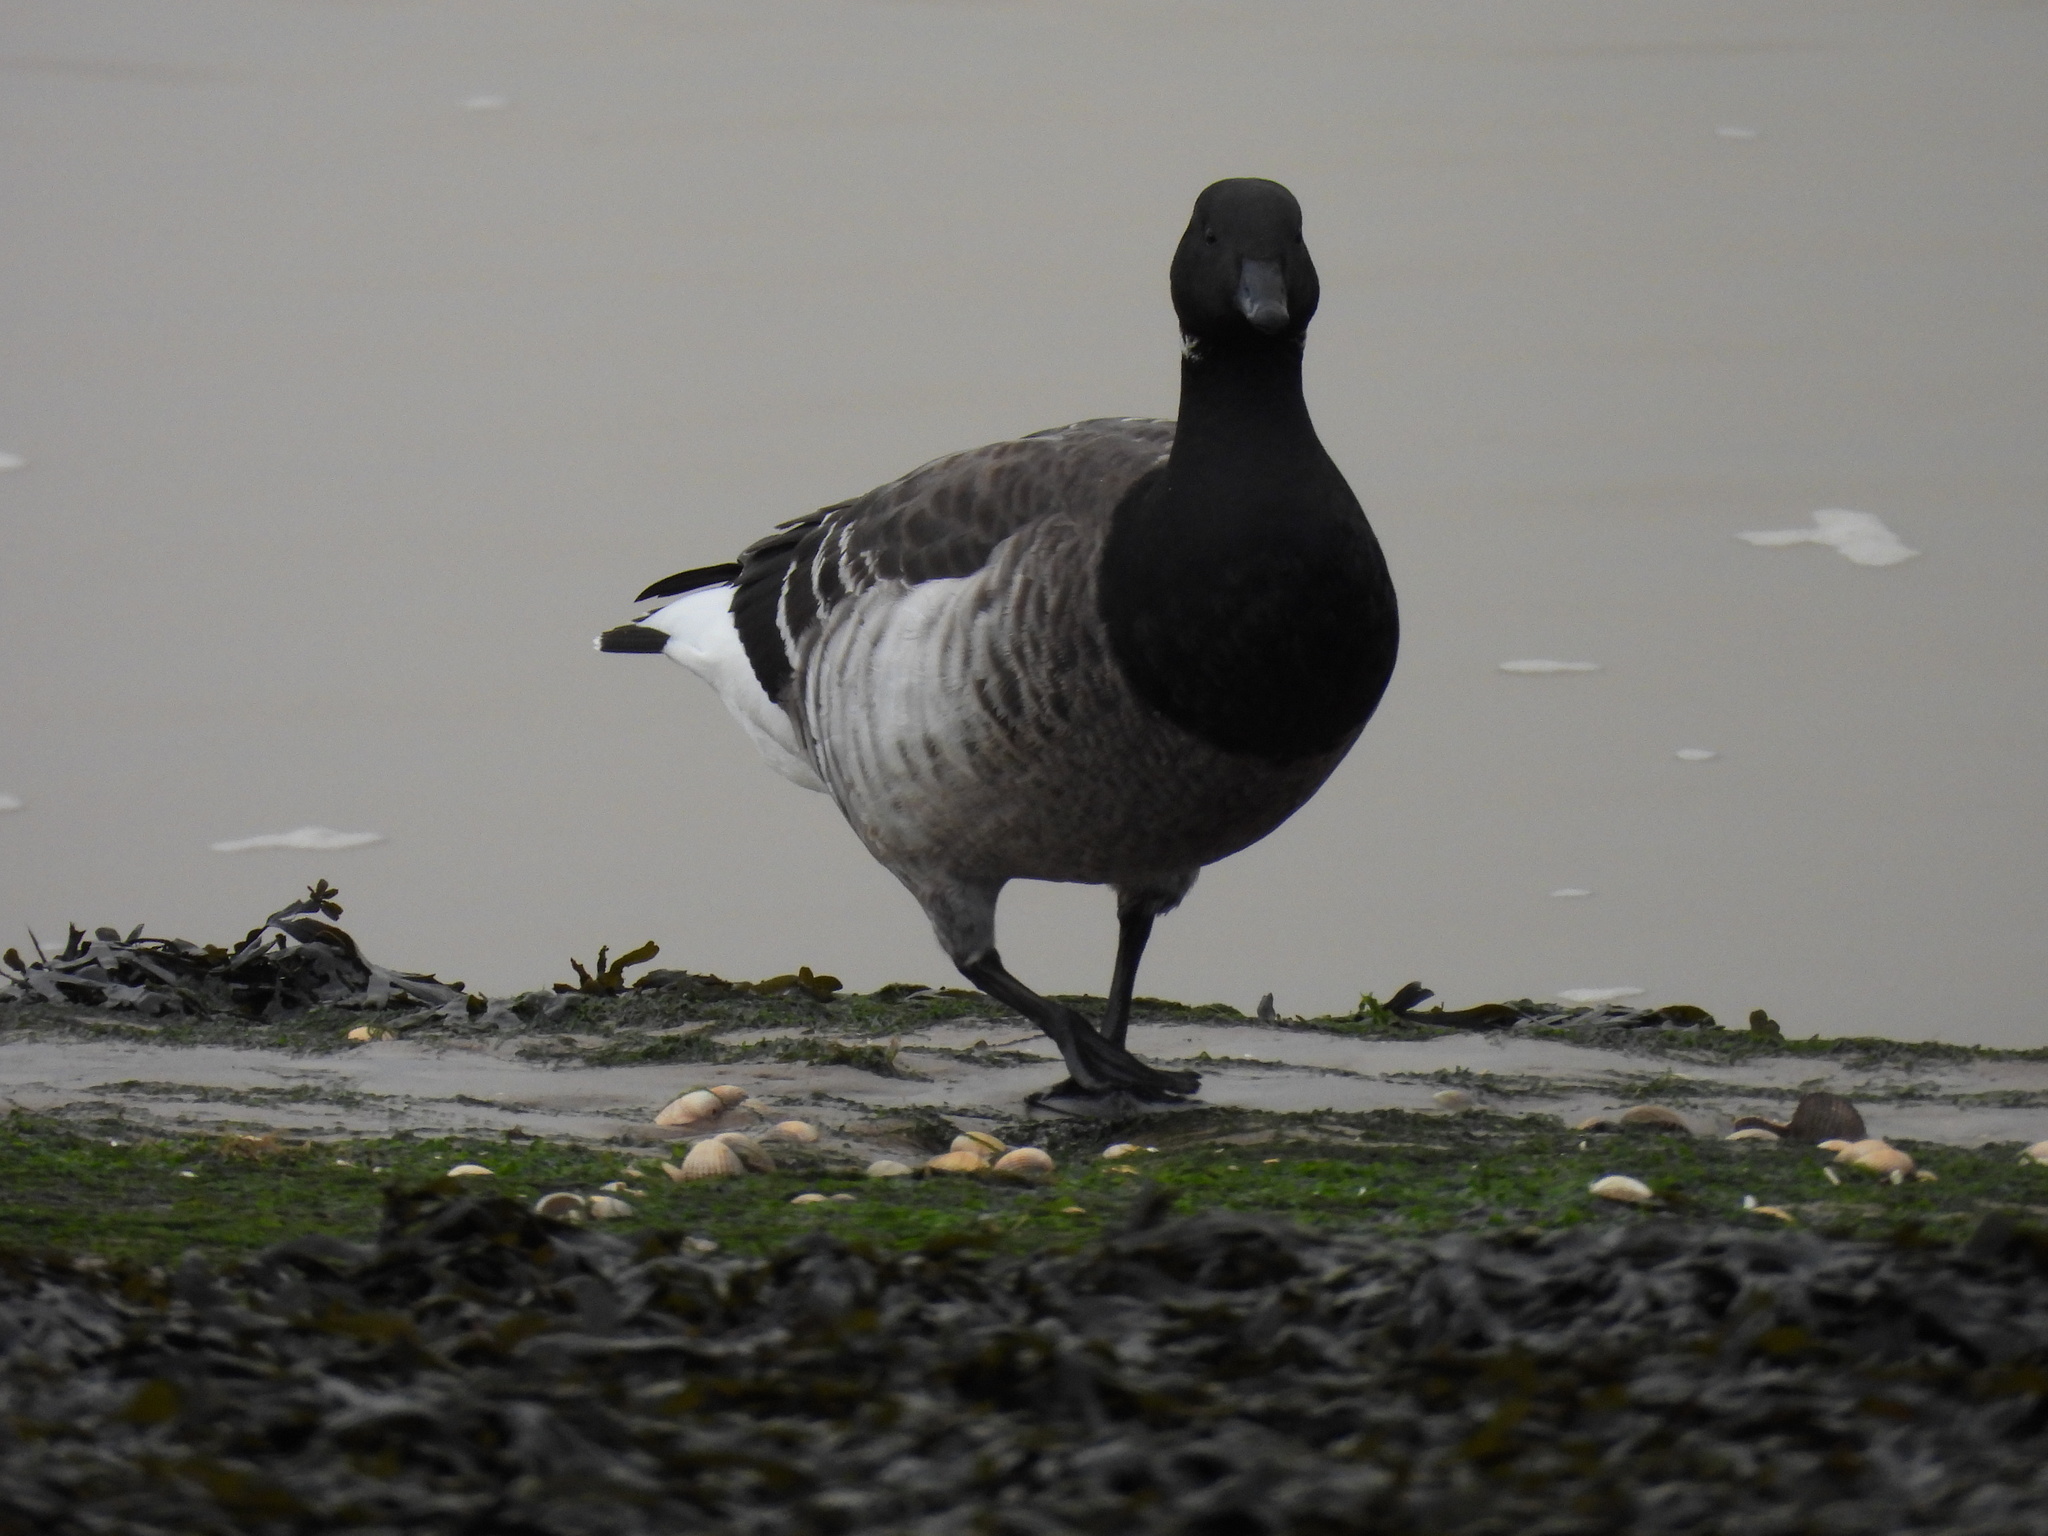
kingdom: Animalia
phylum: Chordata
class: Aves
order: Anseriformes
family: Anatidae
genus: Branta
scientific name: Branta bernicla
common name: Brant goose
